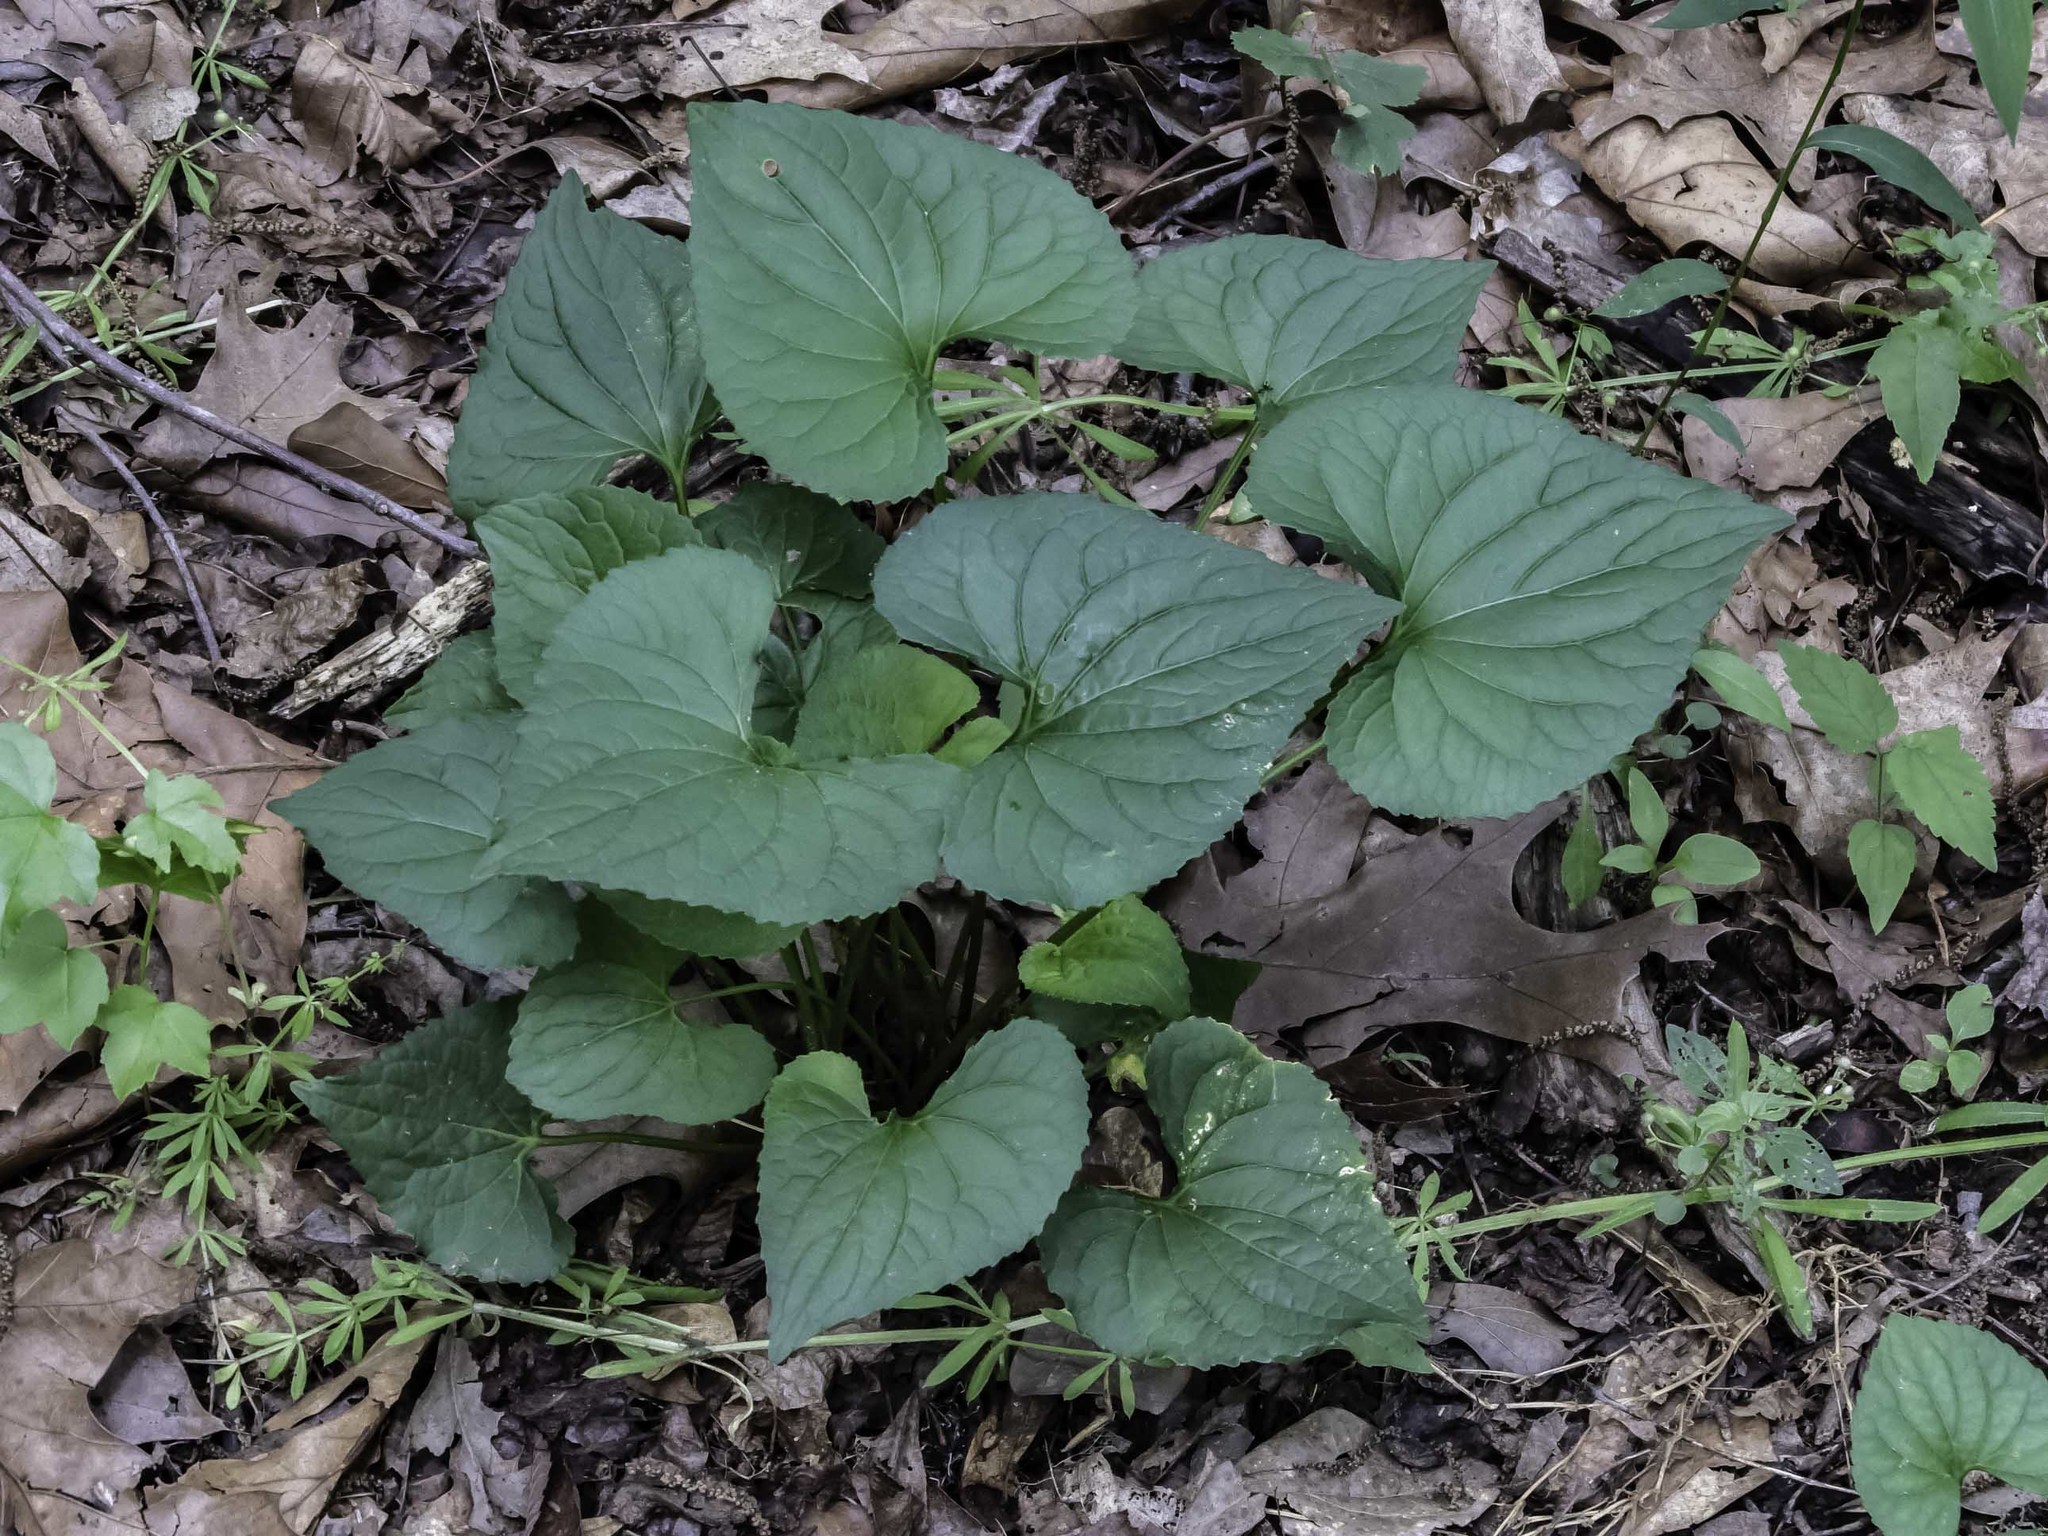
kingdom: Plantae
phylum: Tracheophyta
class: Magnoliopsida
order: Malpighiales
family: Violaceae
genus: Viola
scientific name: Viola sororia
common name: Dooryard violet
